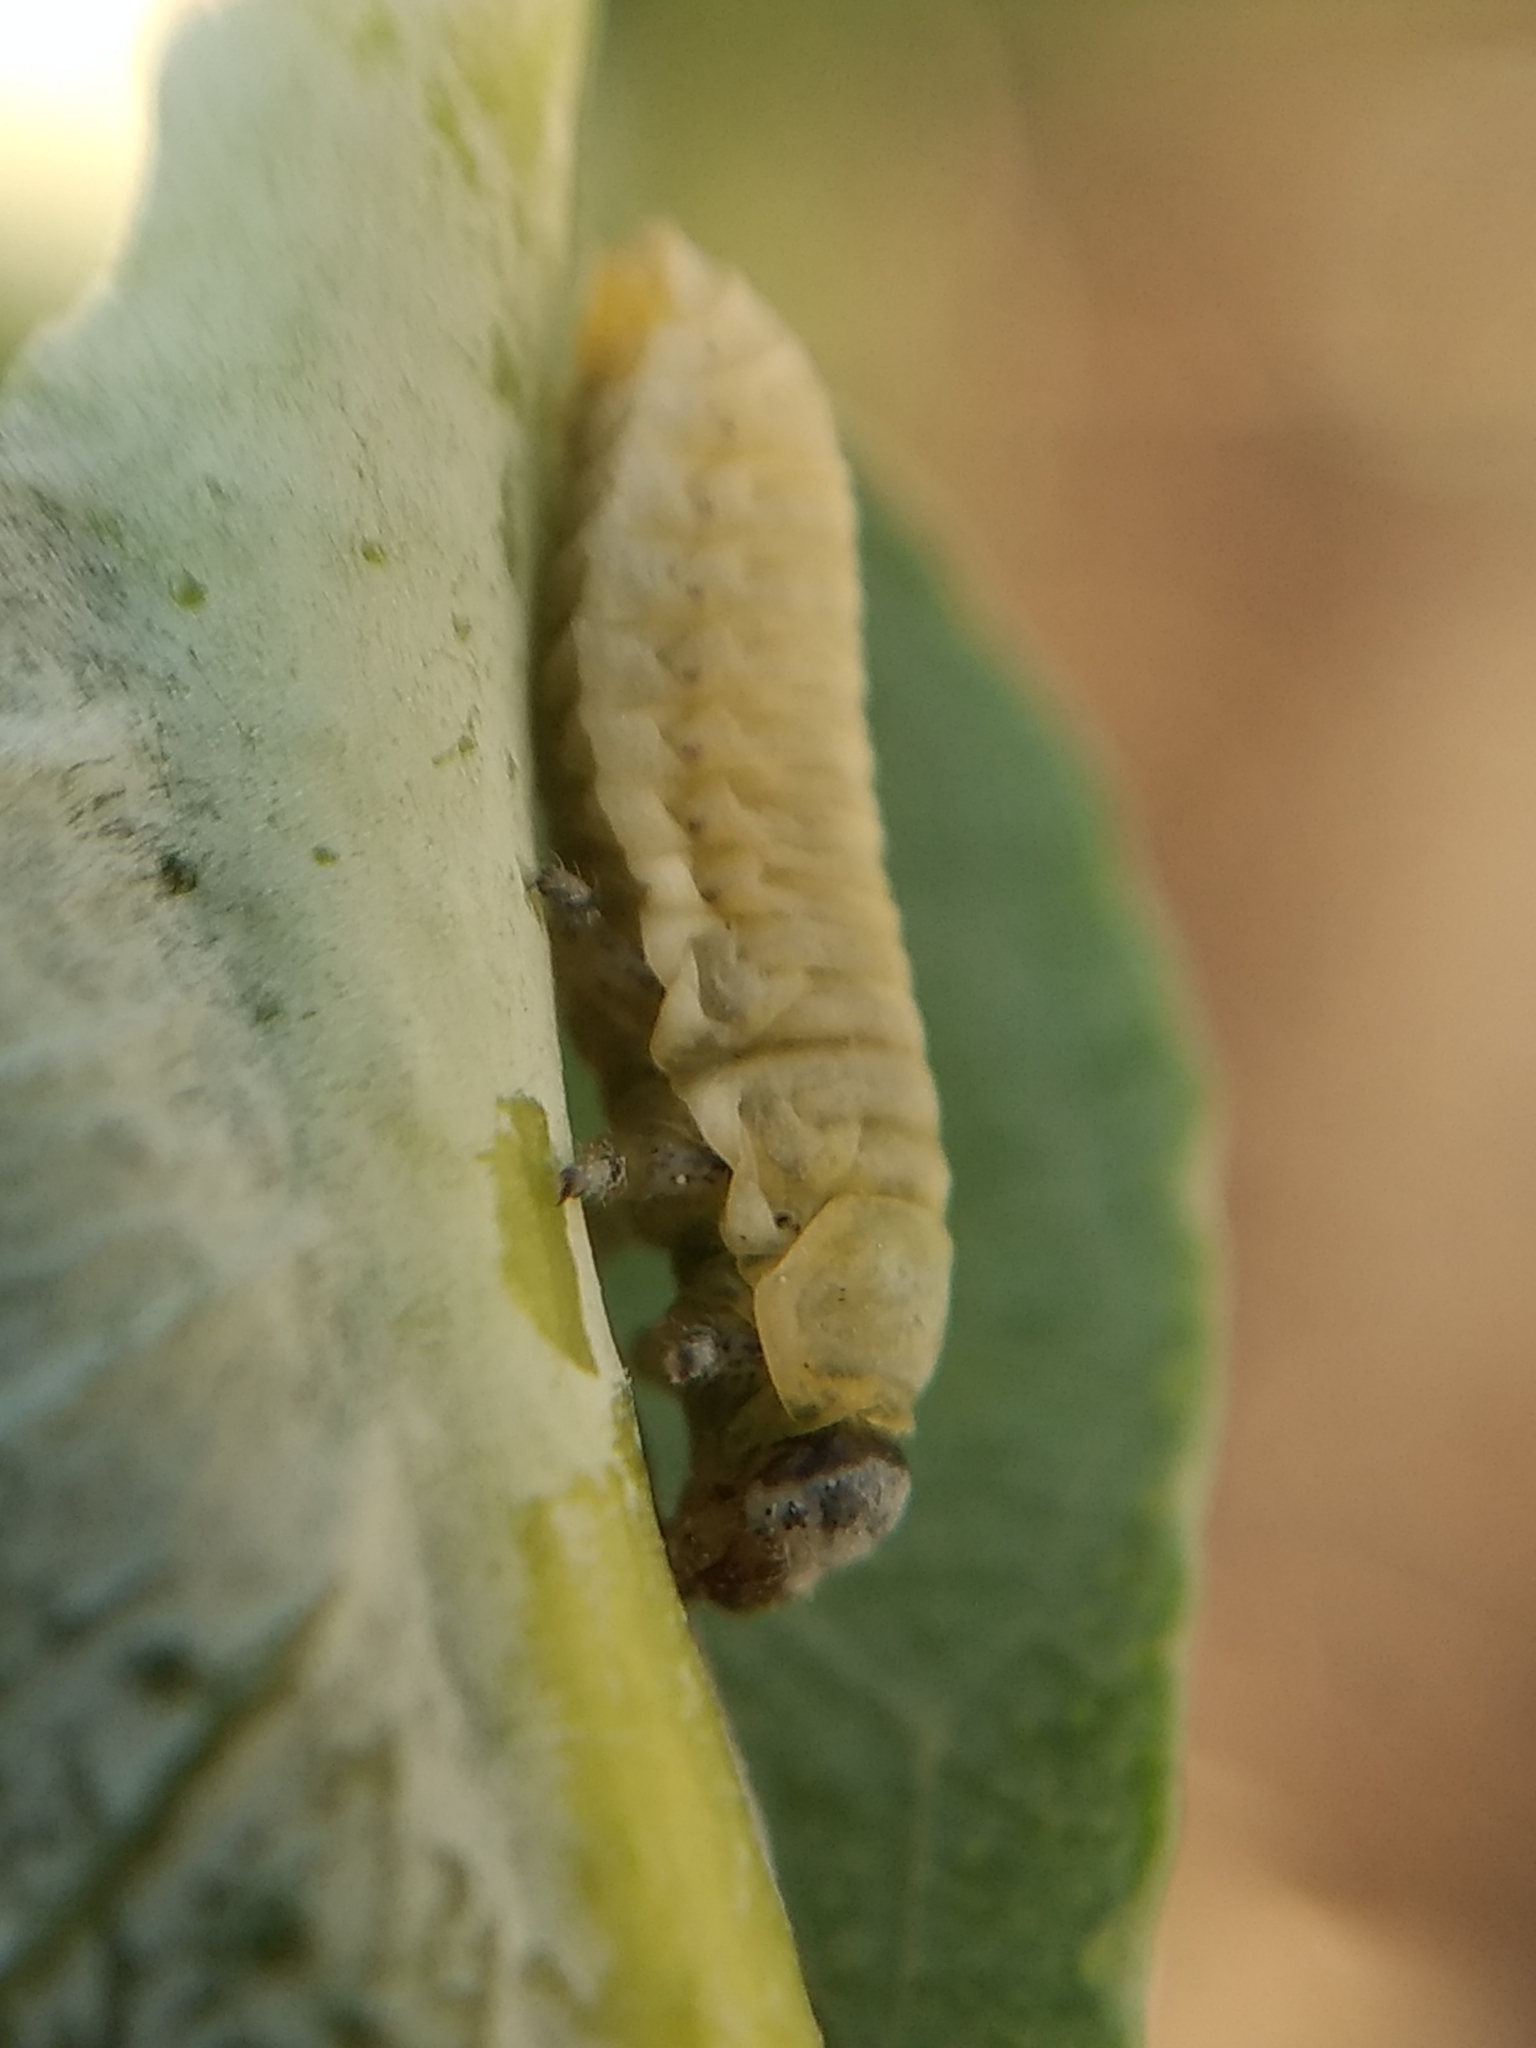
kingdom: Animalia
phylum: Arthropoda
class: Insecta
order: Coleoptera
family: Chrysomelidae
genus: Paropsisterna
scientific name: Paropsisterna m-fuscum
